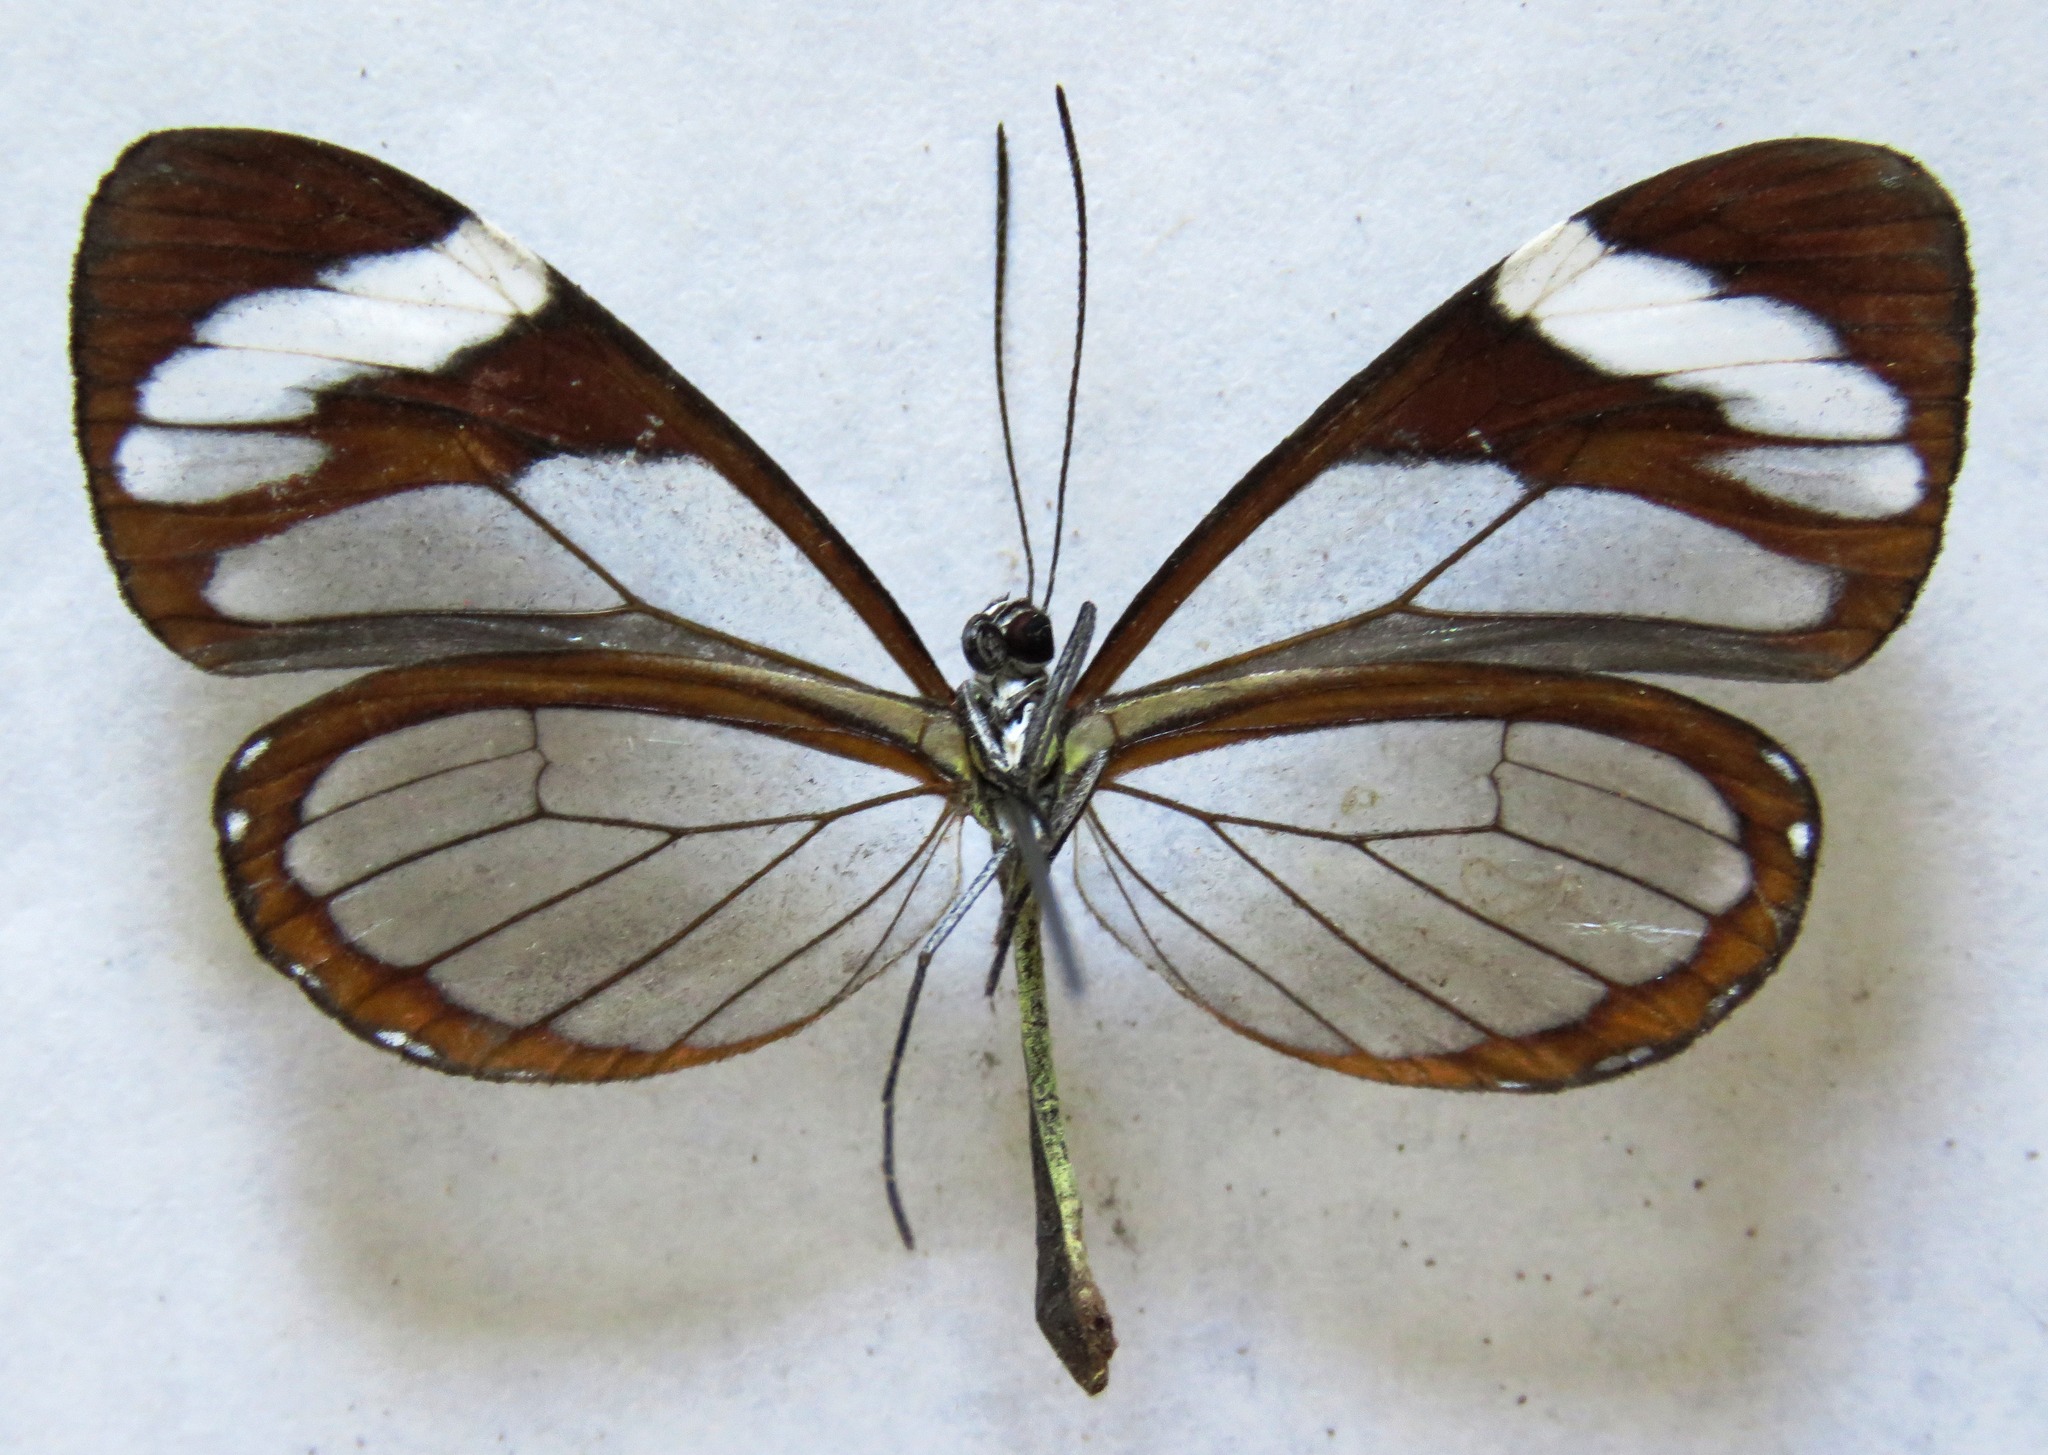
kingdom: Animalia
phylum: Arthropoda
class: Insecta
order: Lepidoptera
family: Nymphalidae
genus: Ithomia
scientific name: Ithomia patilla
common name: Patilla clearwing
